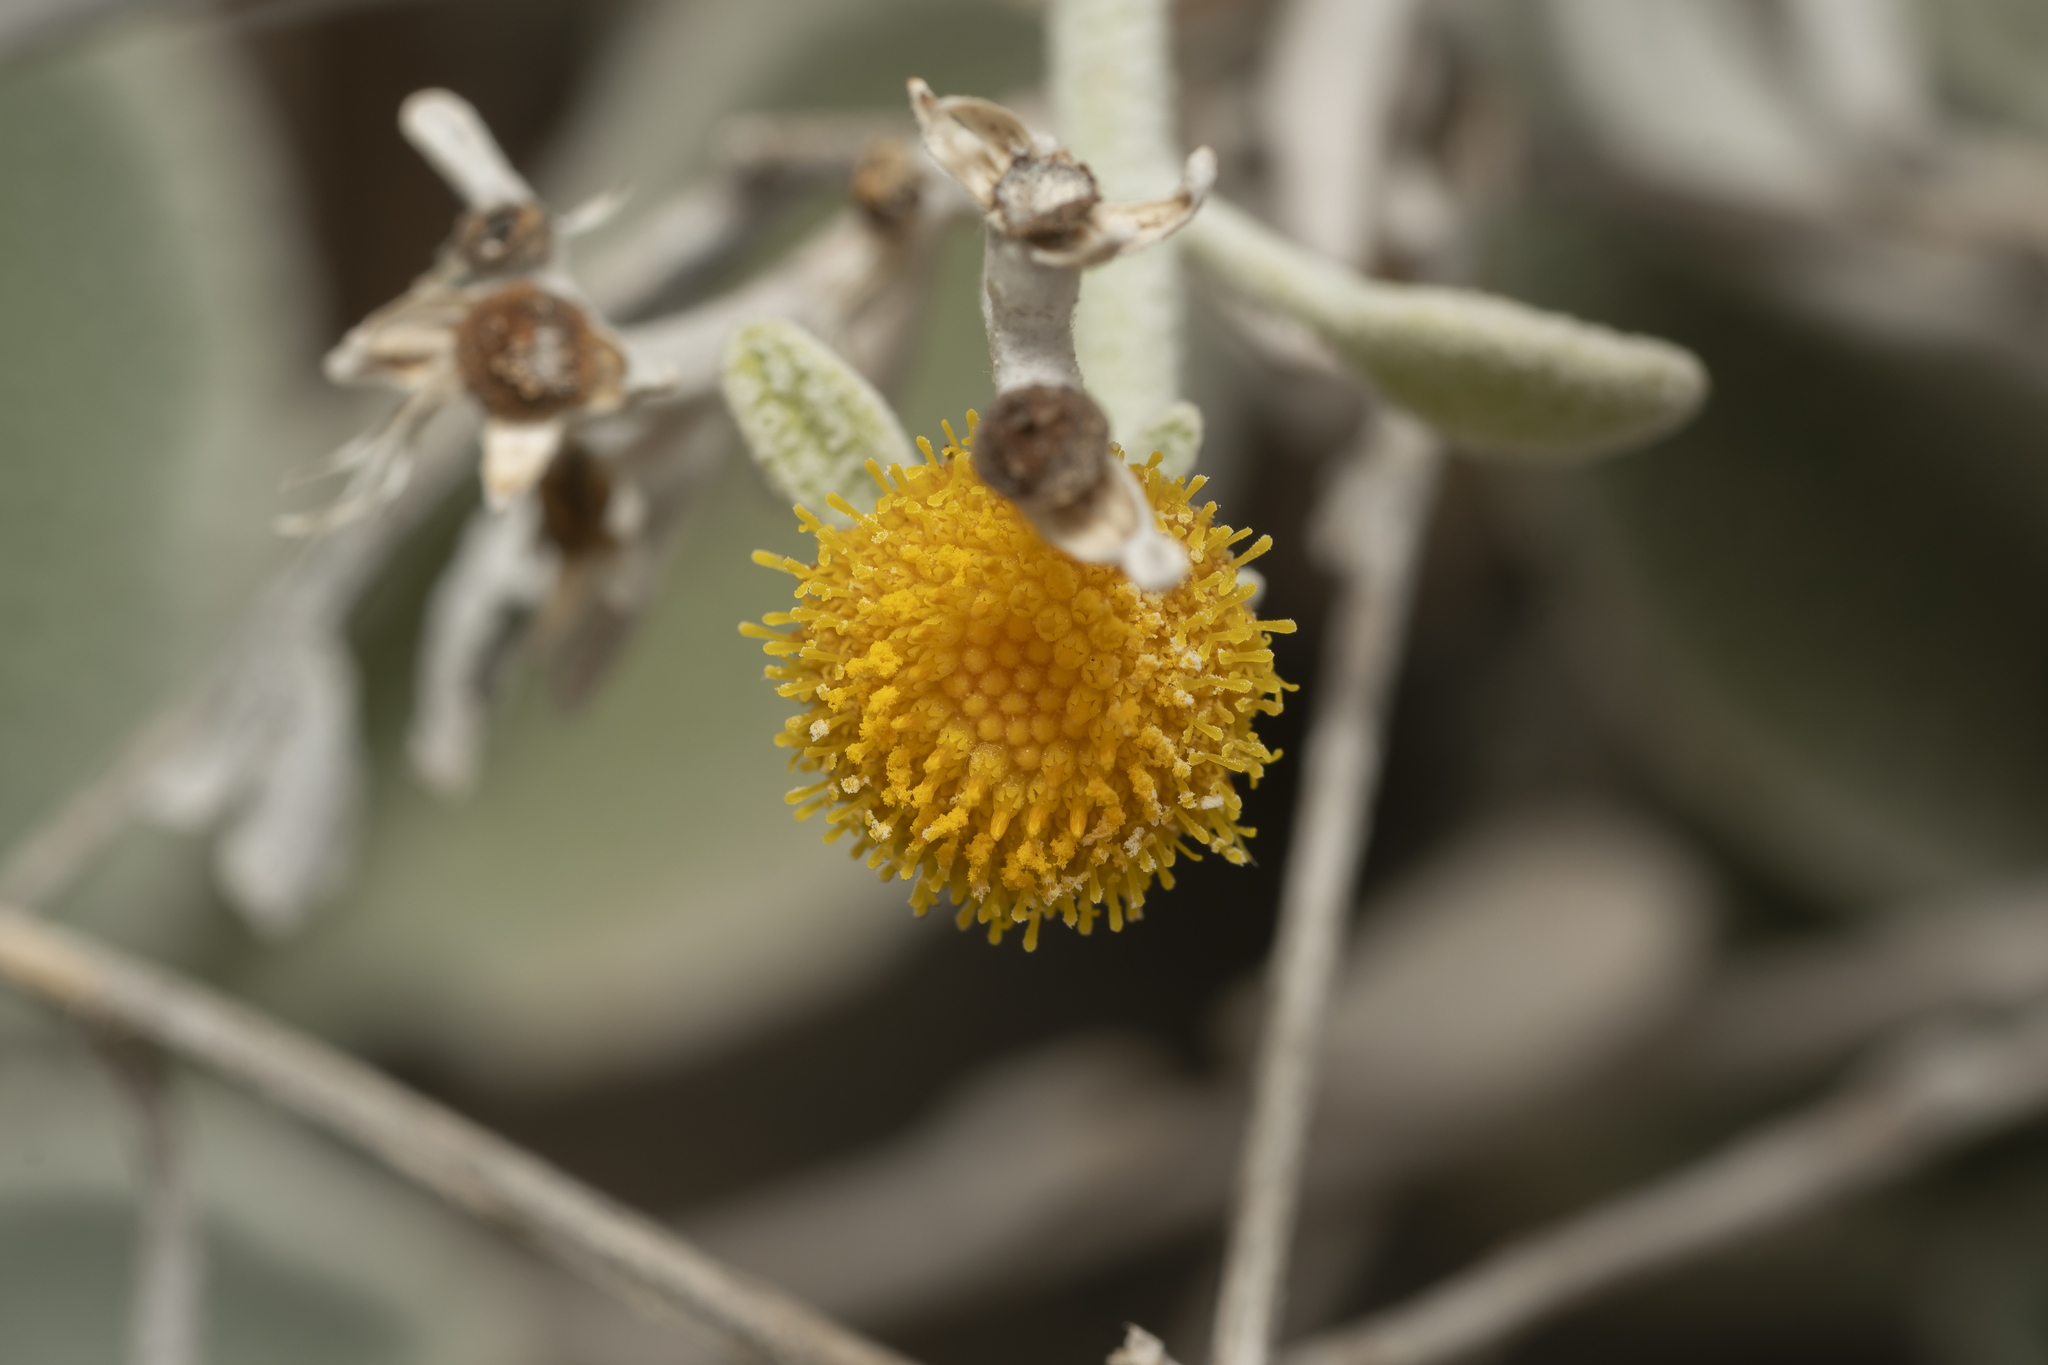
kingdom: Plantae
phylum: Tracheophyta
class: Magnoliopsida
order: Asterales
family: Asteraceae
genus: Pentanema
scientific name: Pentanema verbascifolium
